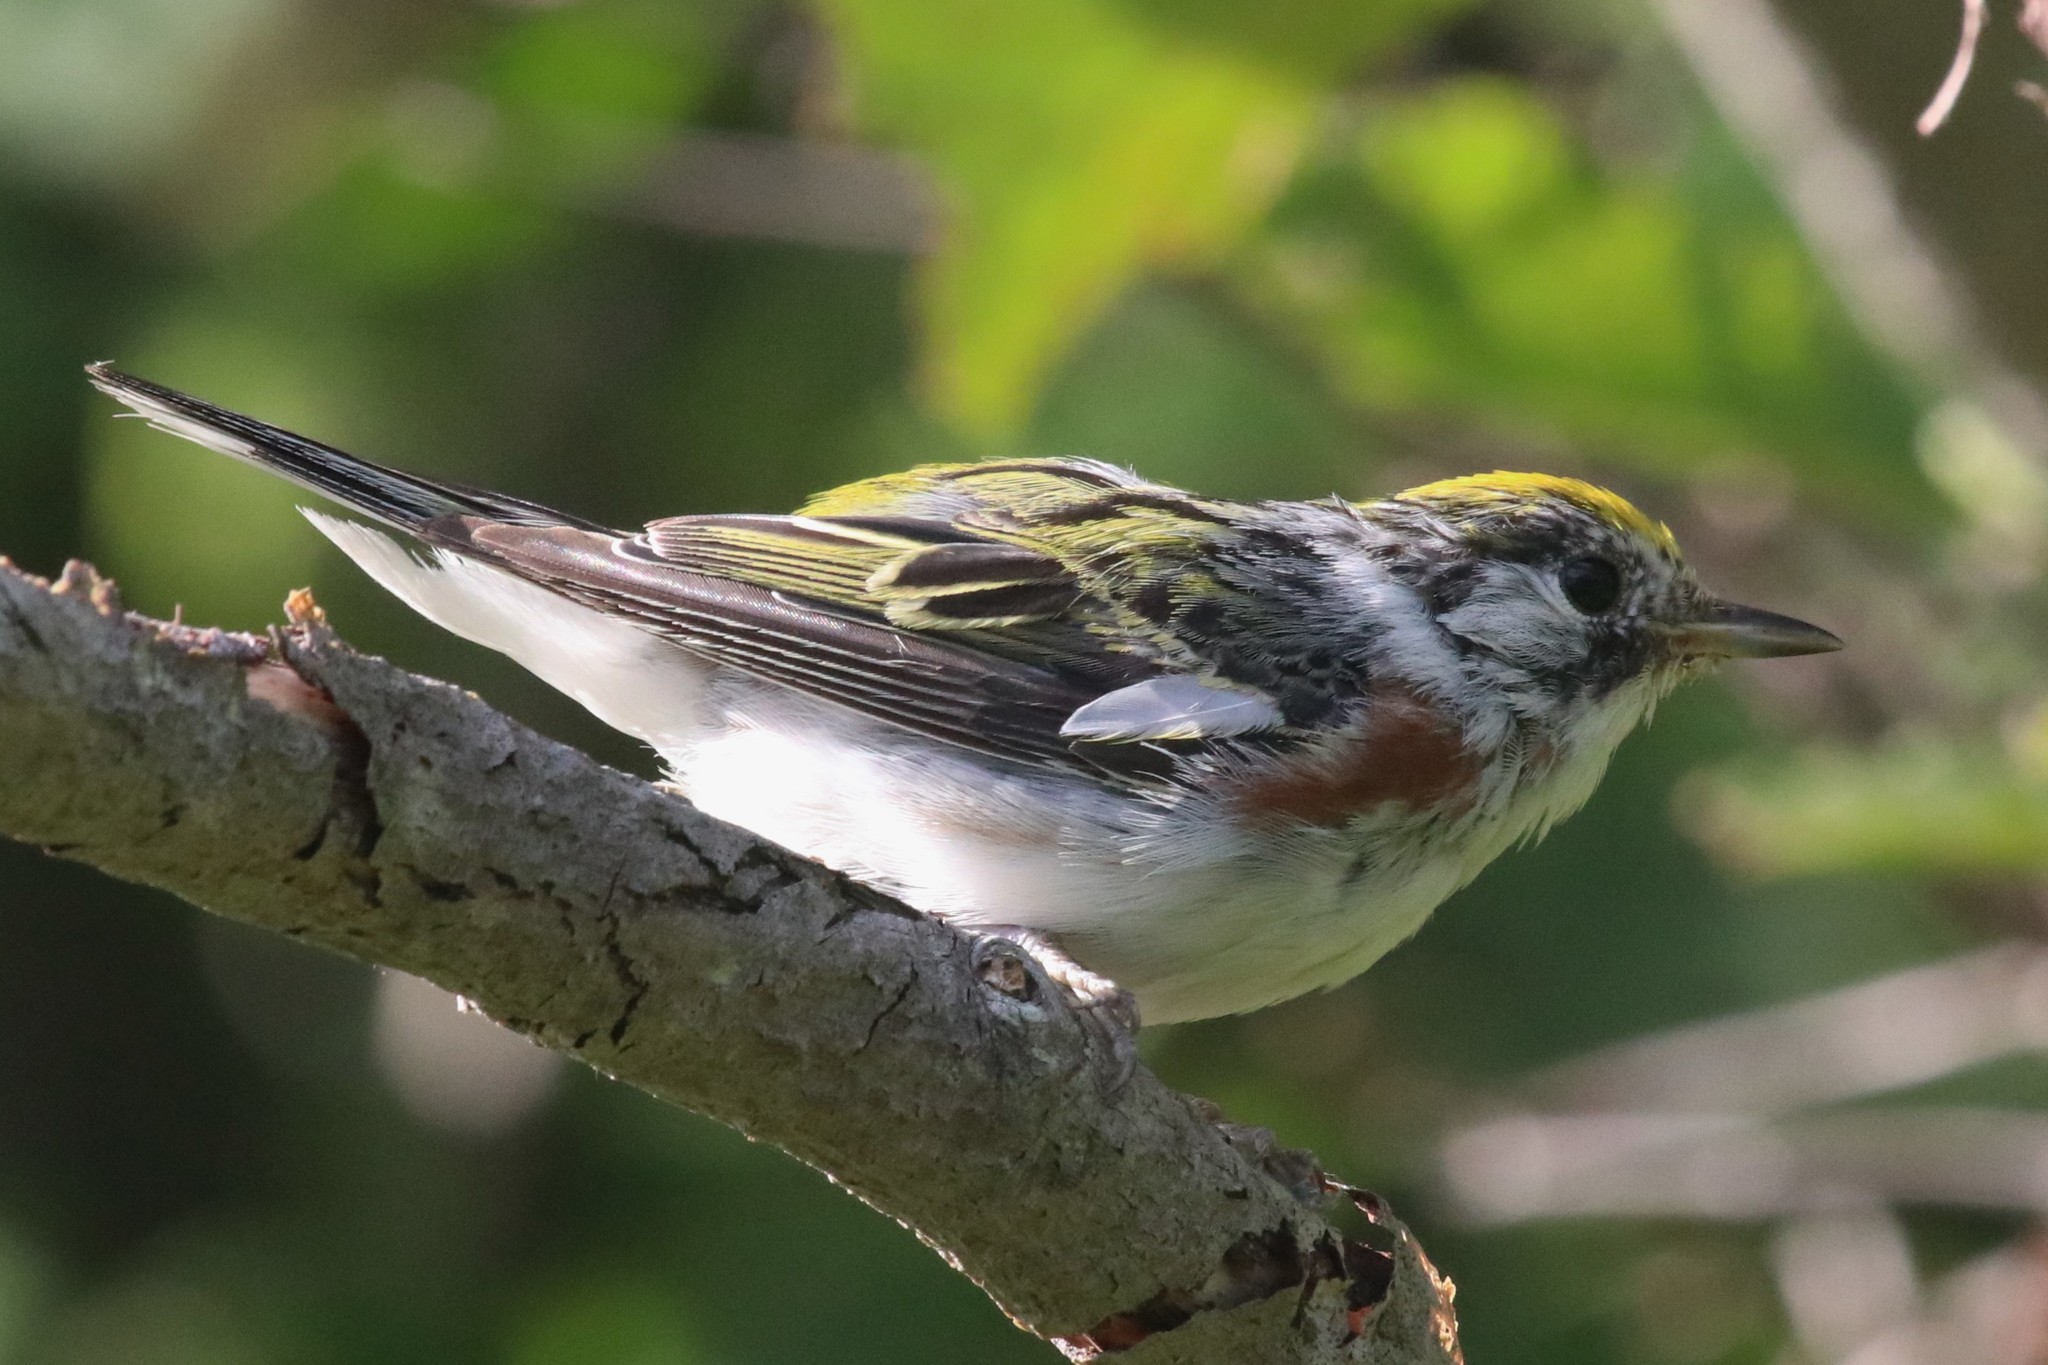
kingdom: Animalia
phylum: Chordata
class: Aves
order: Passeriformes
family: Parulidae
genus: Setophaga
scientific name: Setophaga pensylvanica
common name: Chestnut-sided warbler
